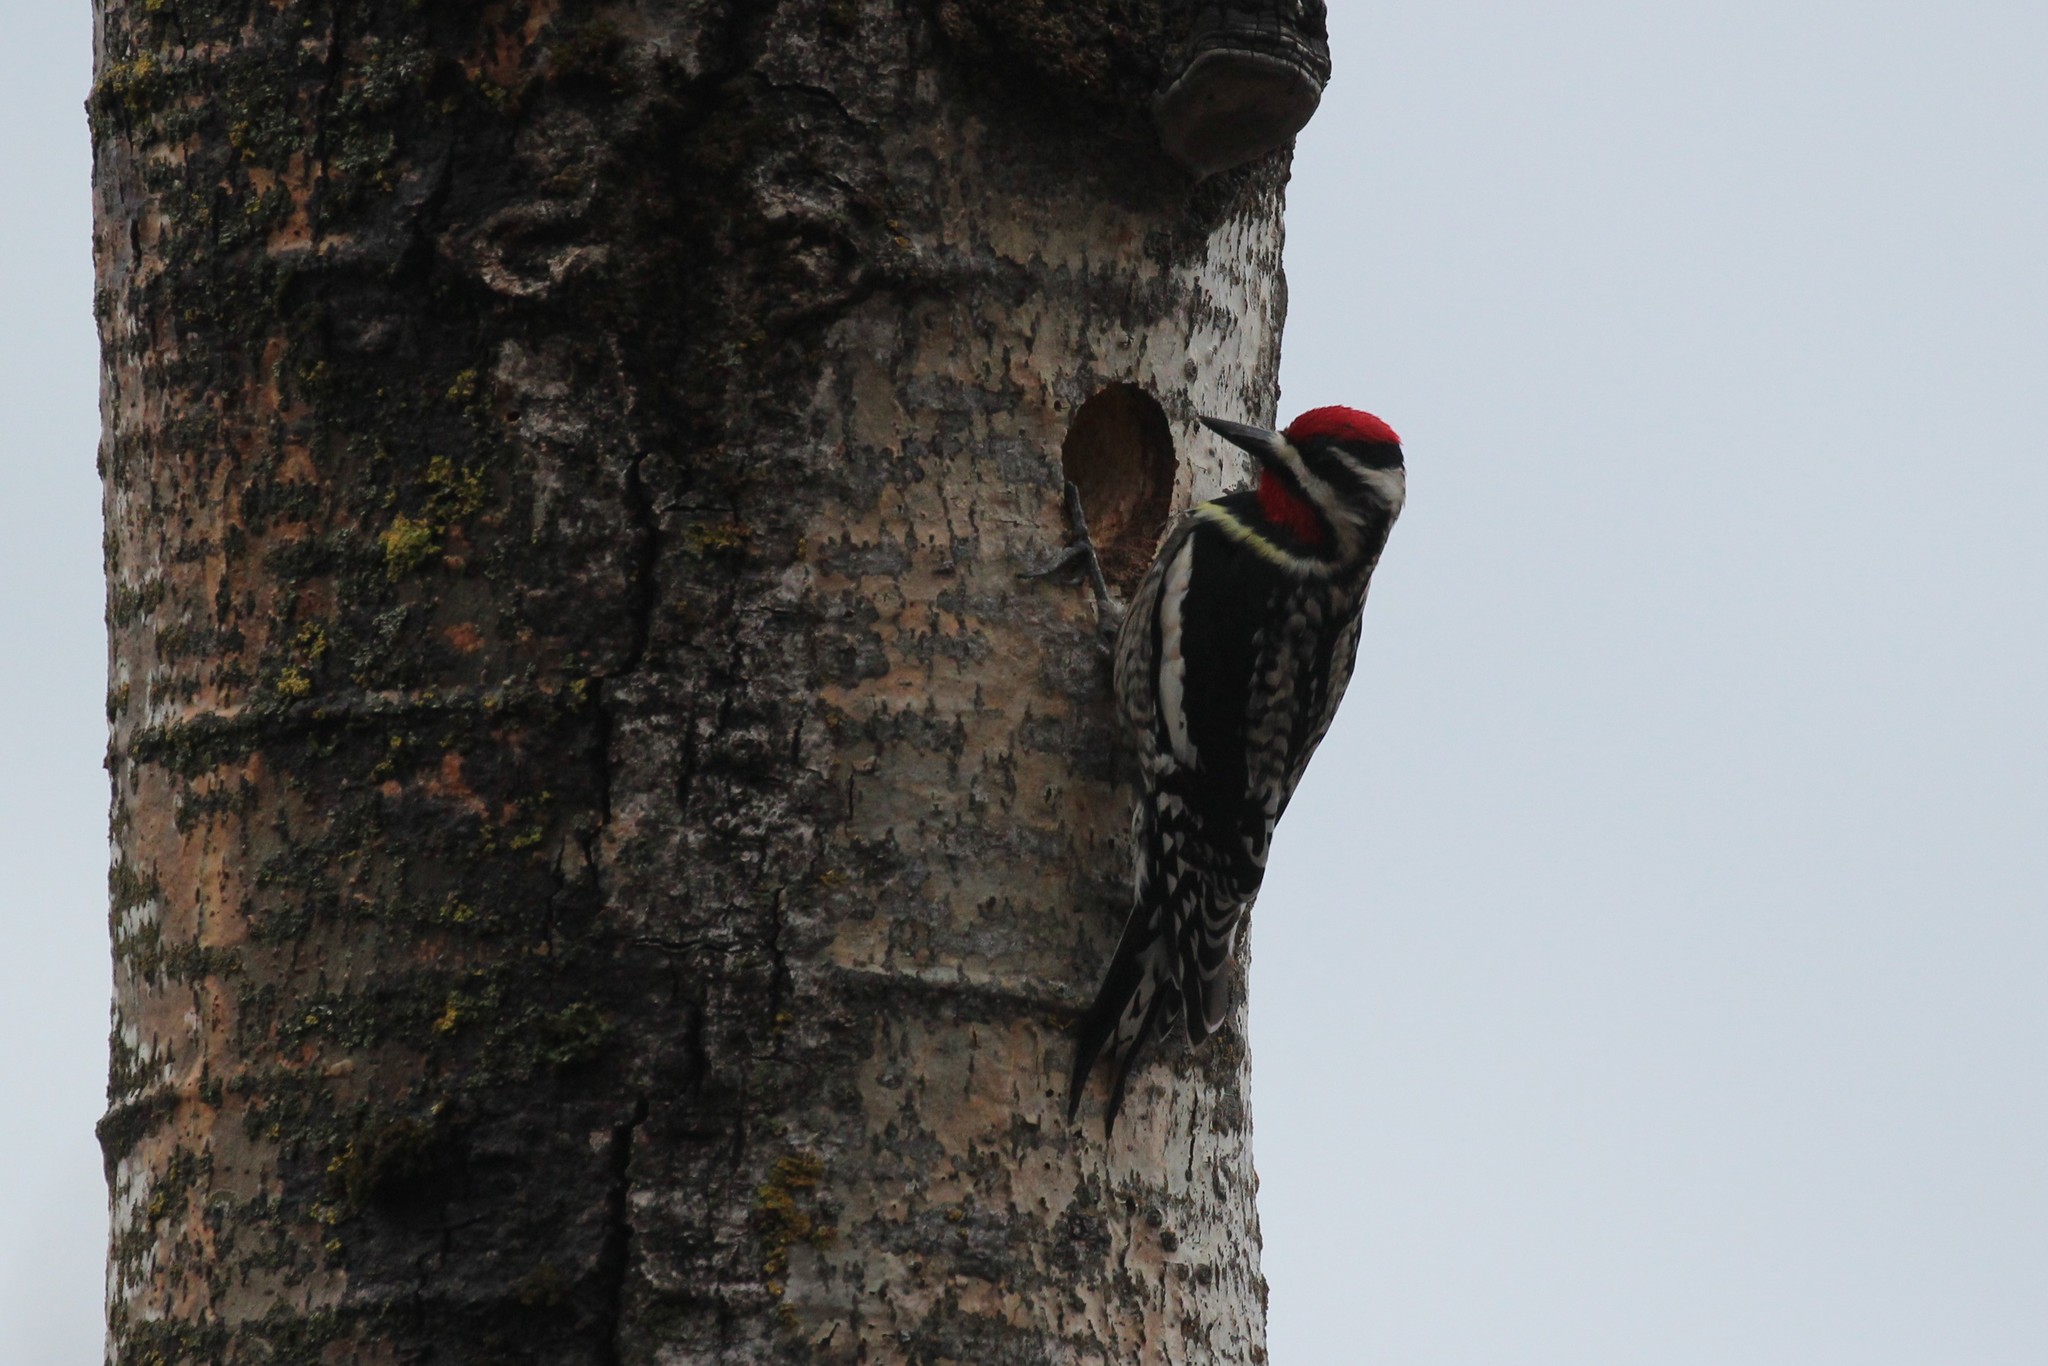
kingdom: Animalia
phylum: Chordata
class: Aves
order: Piciformes
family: Picidae
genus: Sphyrapicus
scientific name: Sphyrapicus varius
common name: Yellow-bellied sapsucker
